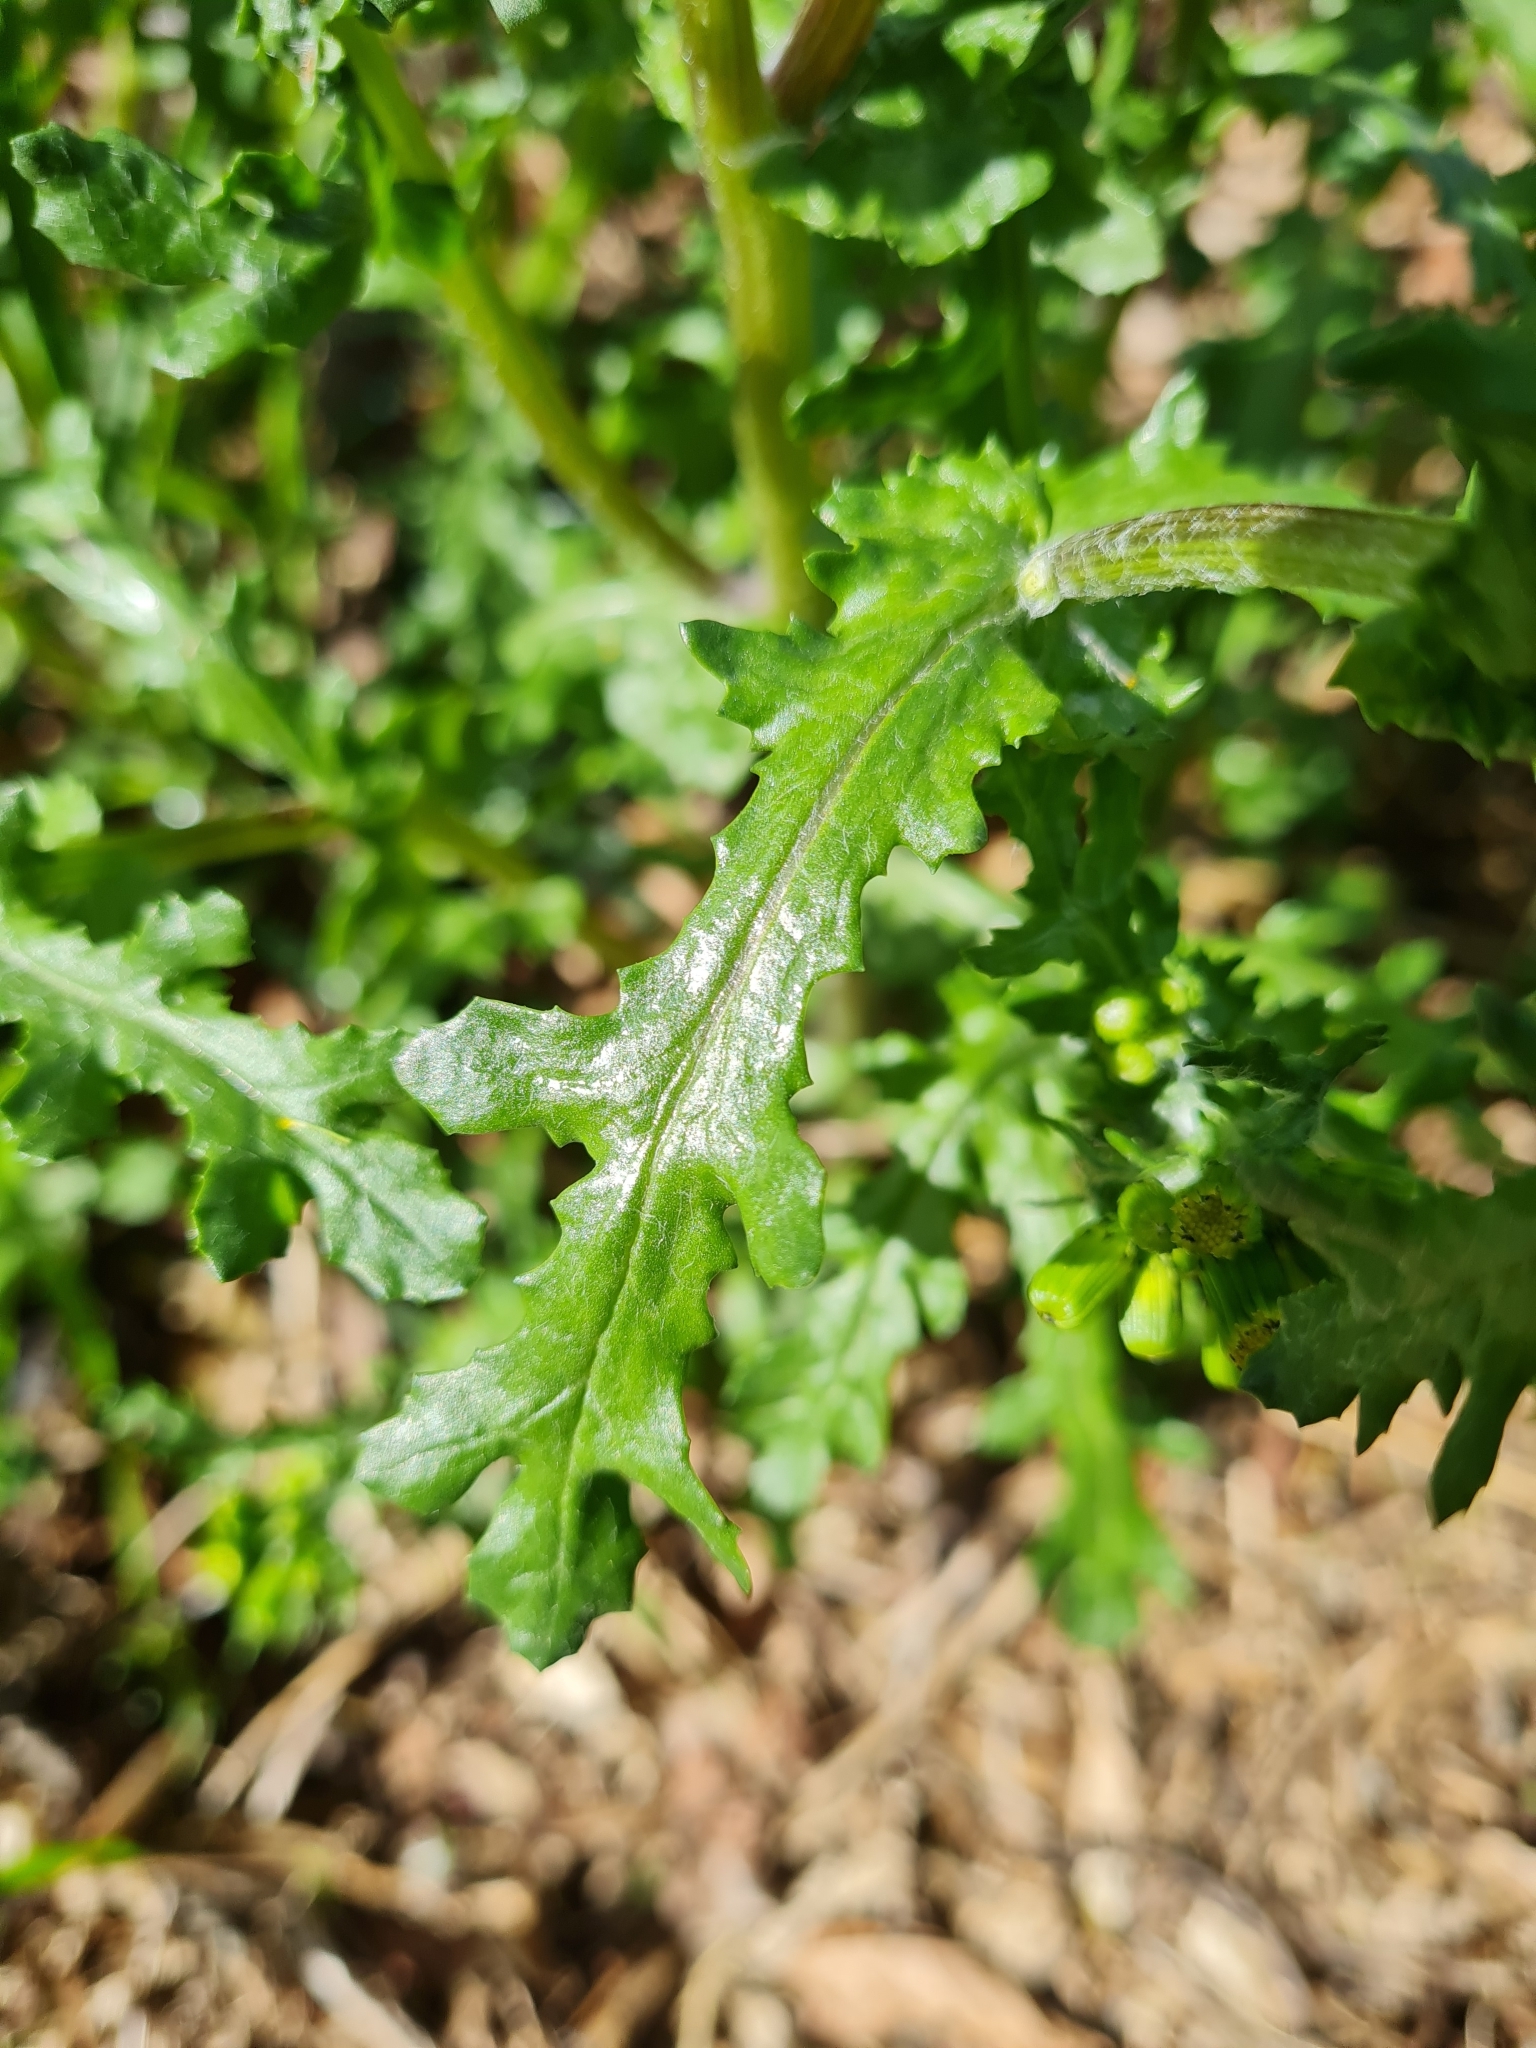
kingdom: Plantae
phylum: Tracheophyta
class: Magnoliopsida
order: Asterales
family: Asteraceae
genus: Senecio
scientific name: Senecio vulgaris
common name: Old-man-in-the-spring
